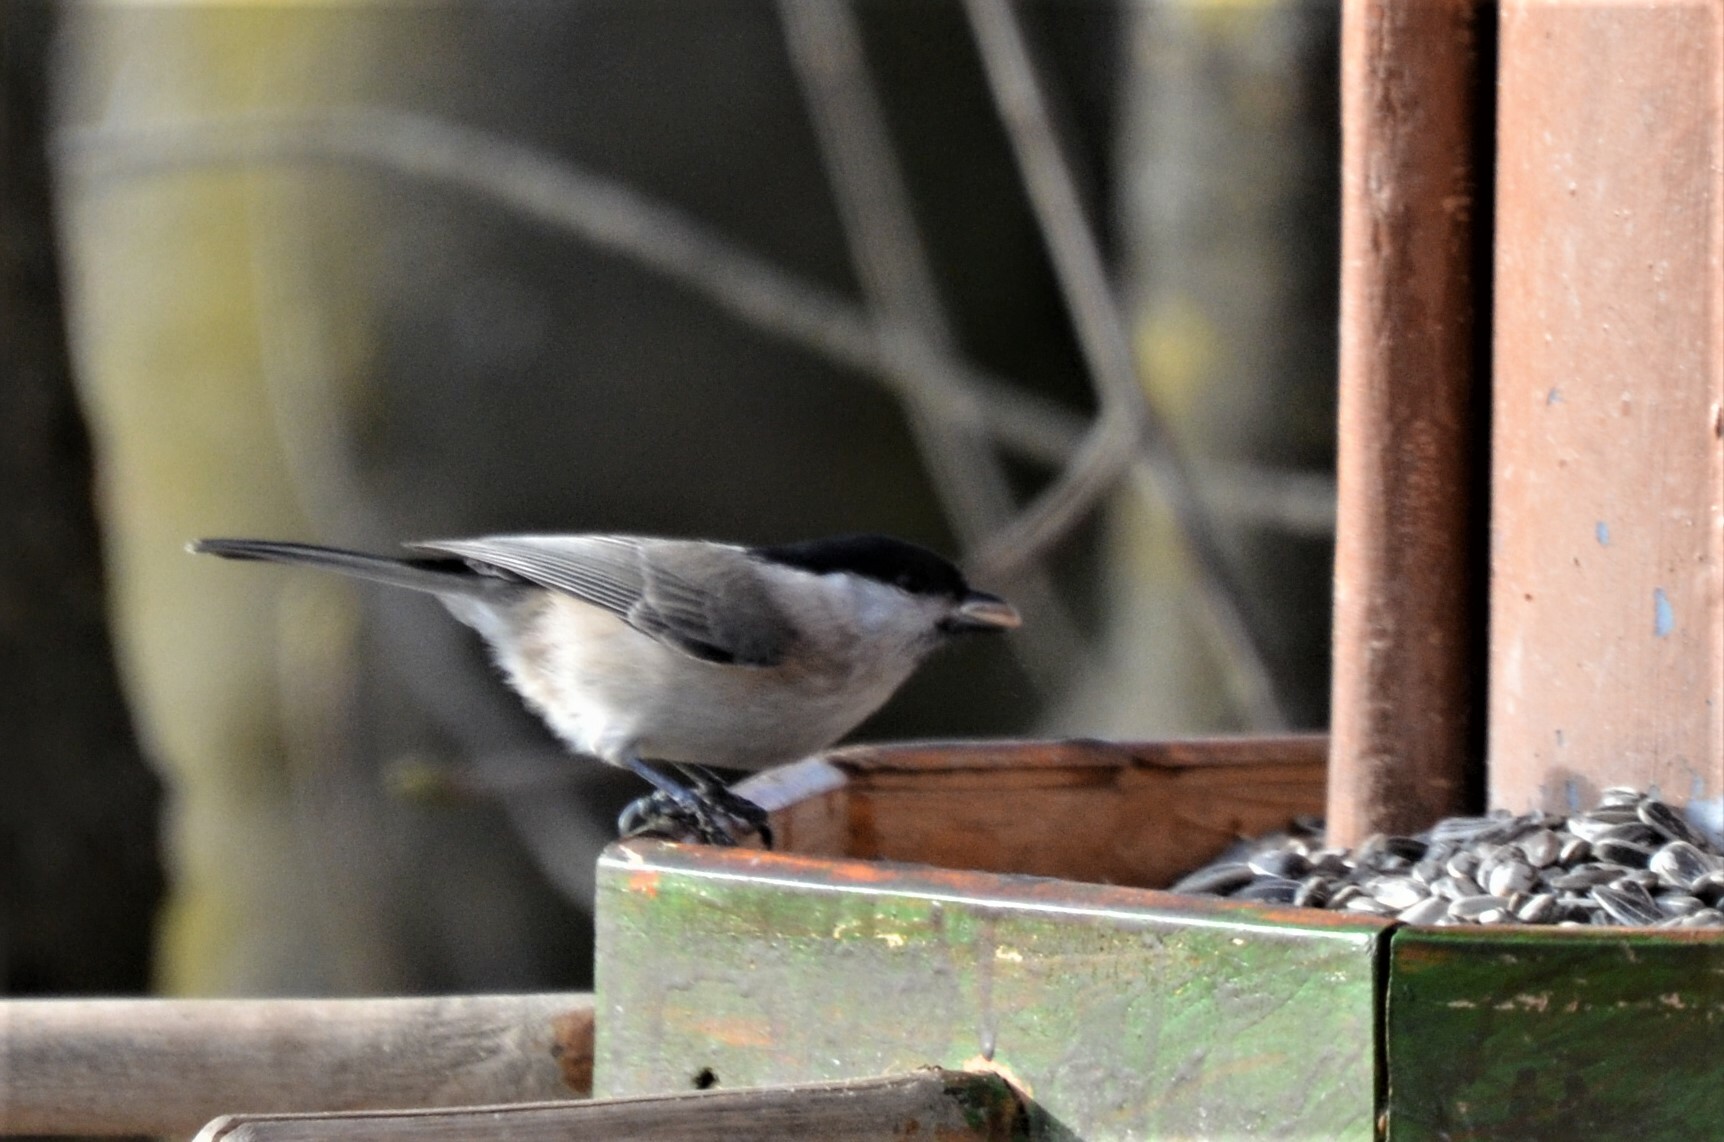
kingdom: Animalia
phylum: Chordata
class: Aves
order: Passeriformes
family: Paridae
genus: Poecile
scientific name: Poecile palustris
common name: Marsh tit
